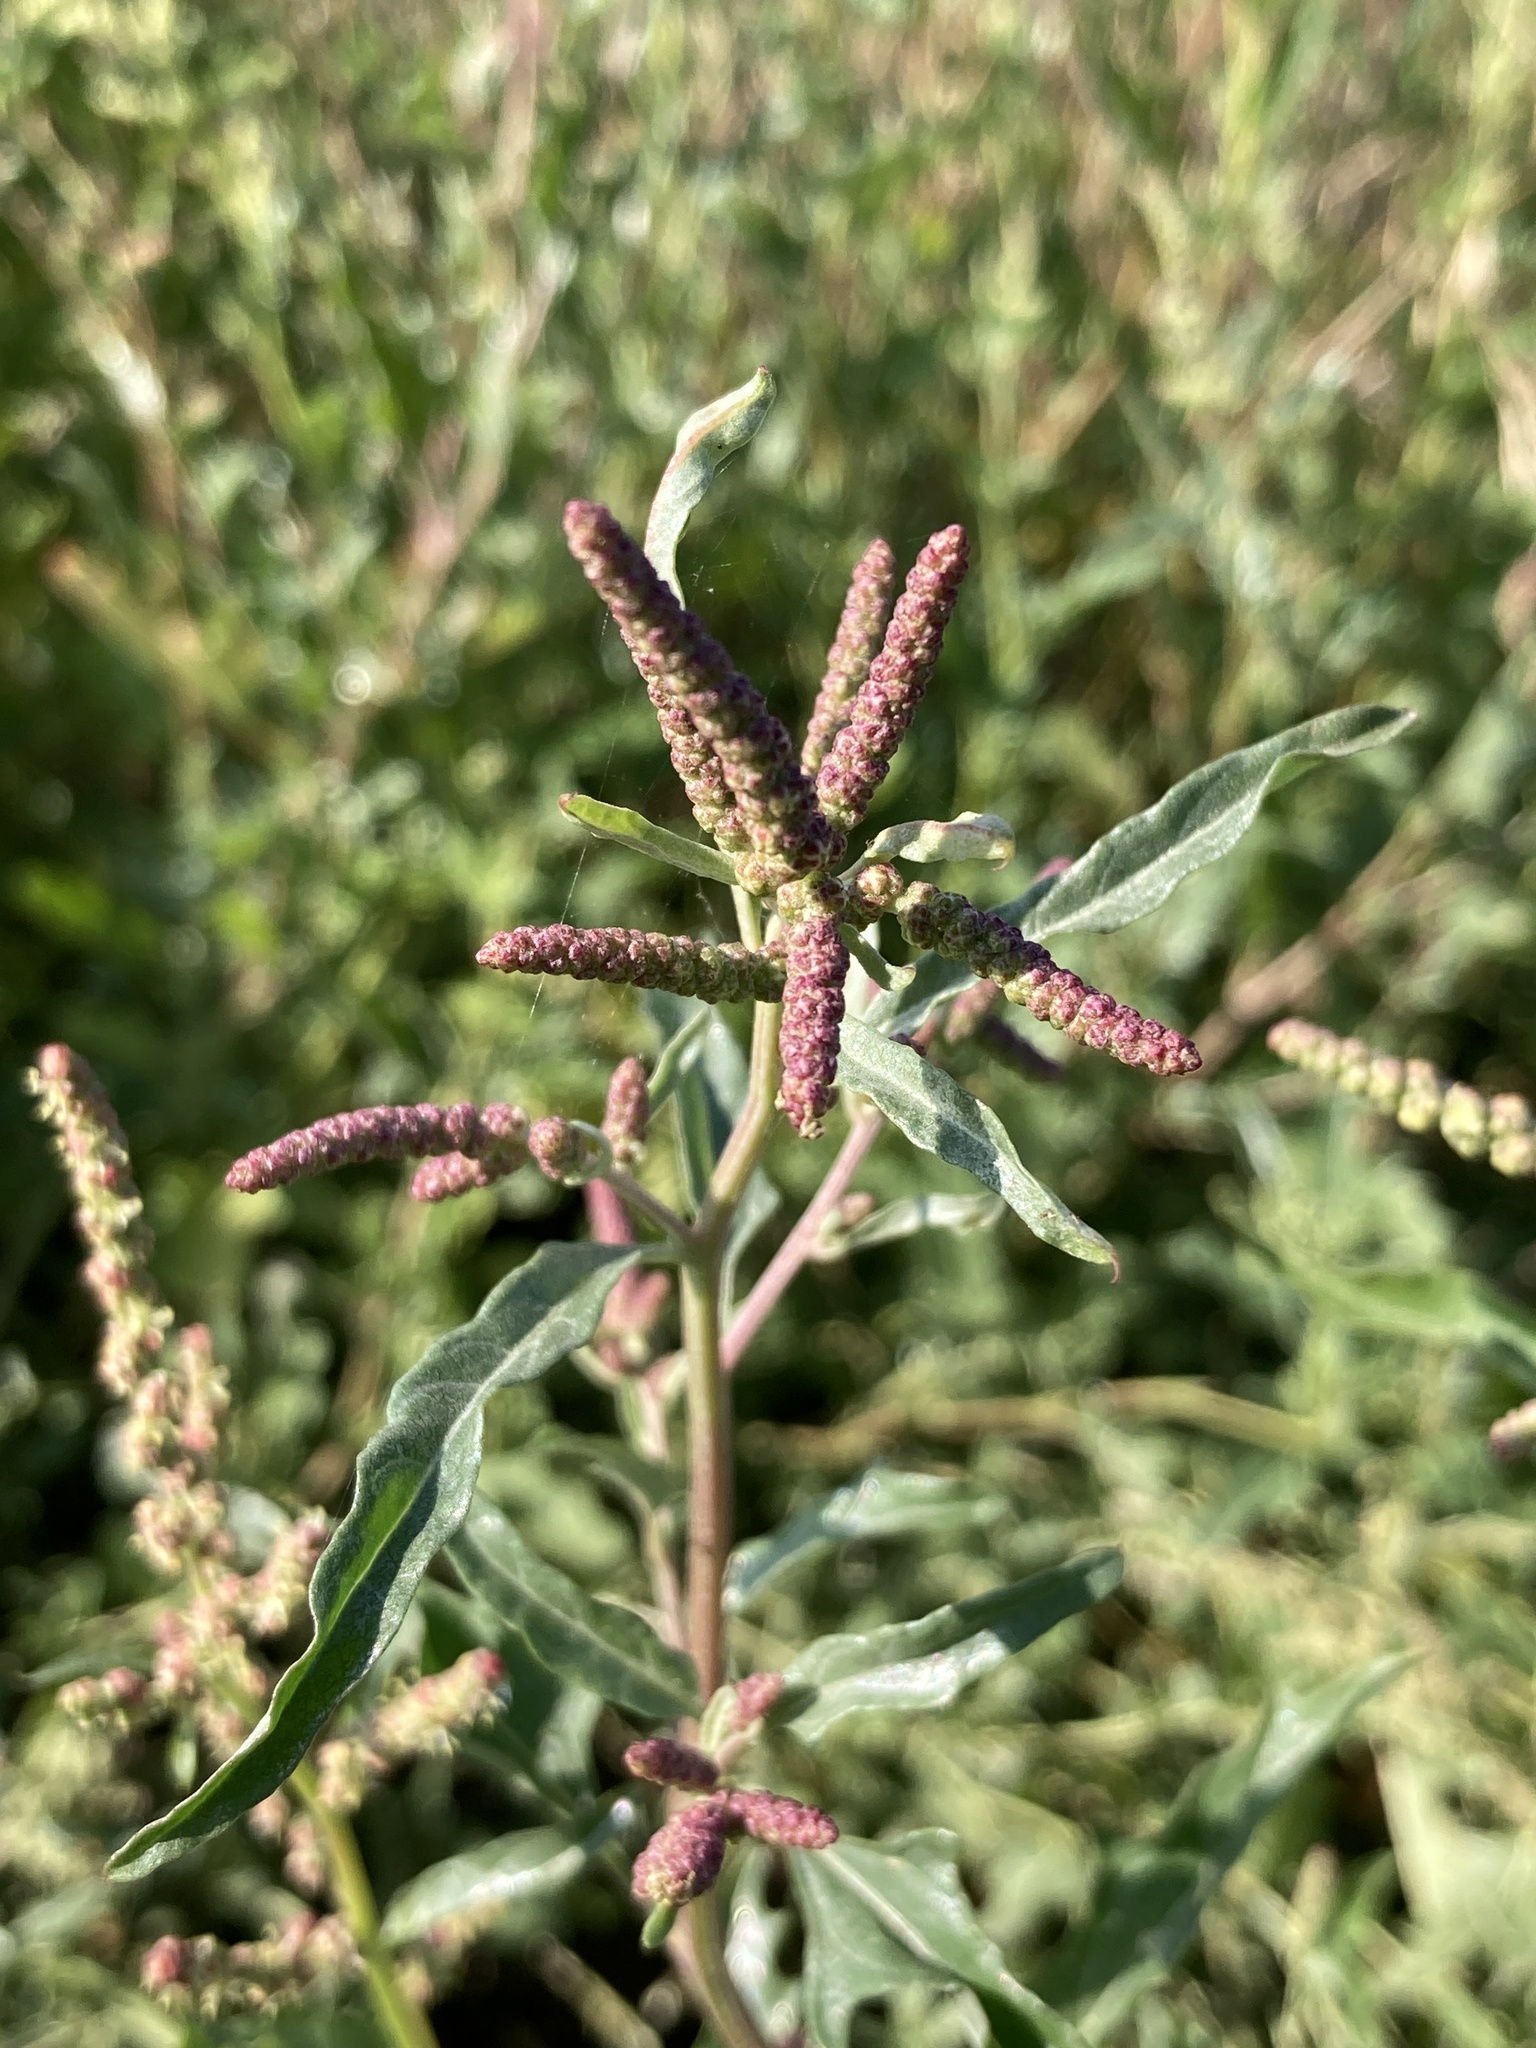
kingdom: Plantae
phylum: Tracheophyta
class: Magnoliopsida
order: Caryophyllales
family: Amaranthaceae
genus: Atriplex
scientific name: Atriplex tatarica
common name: Tatarian orache
